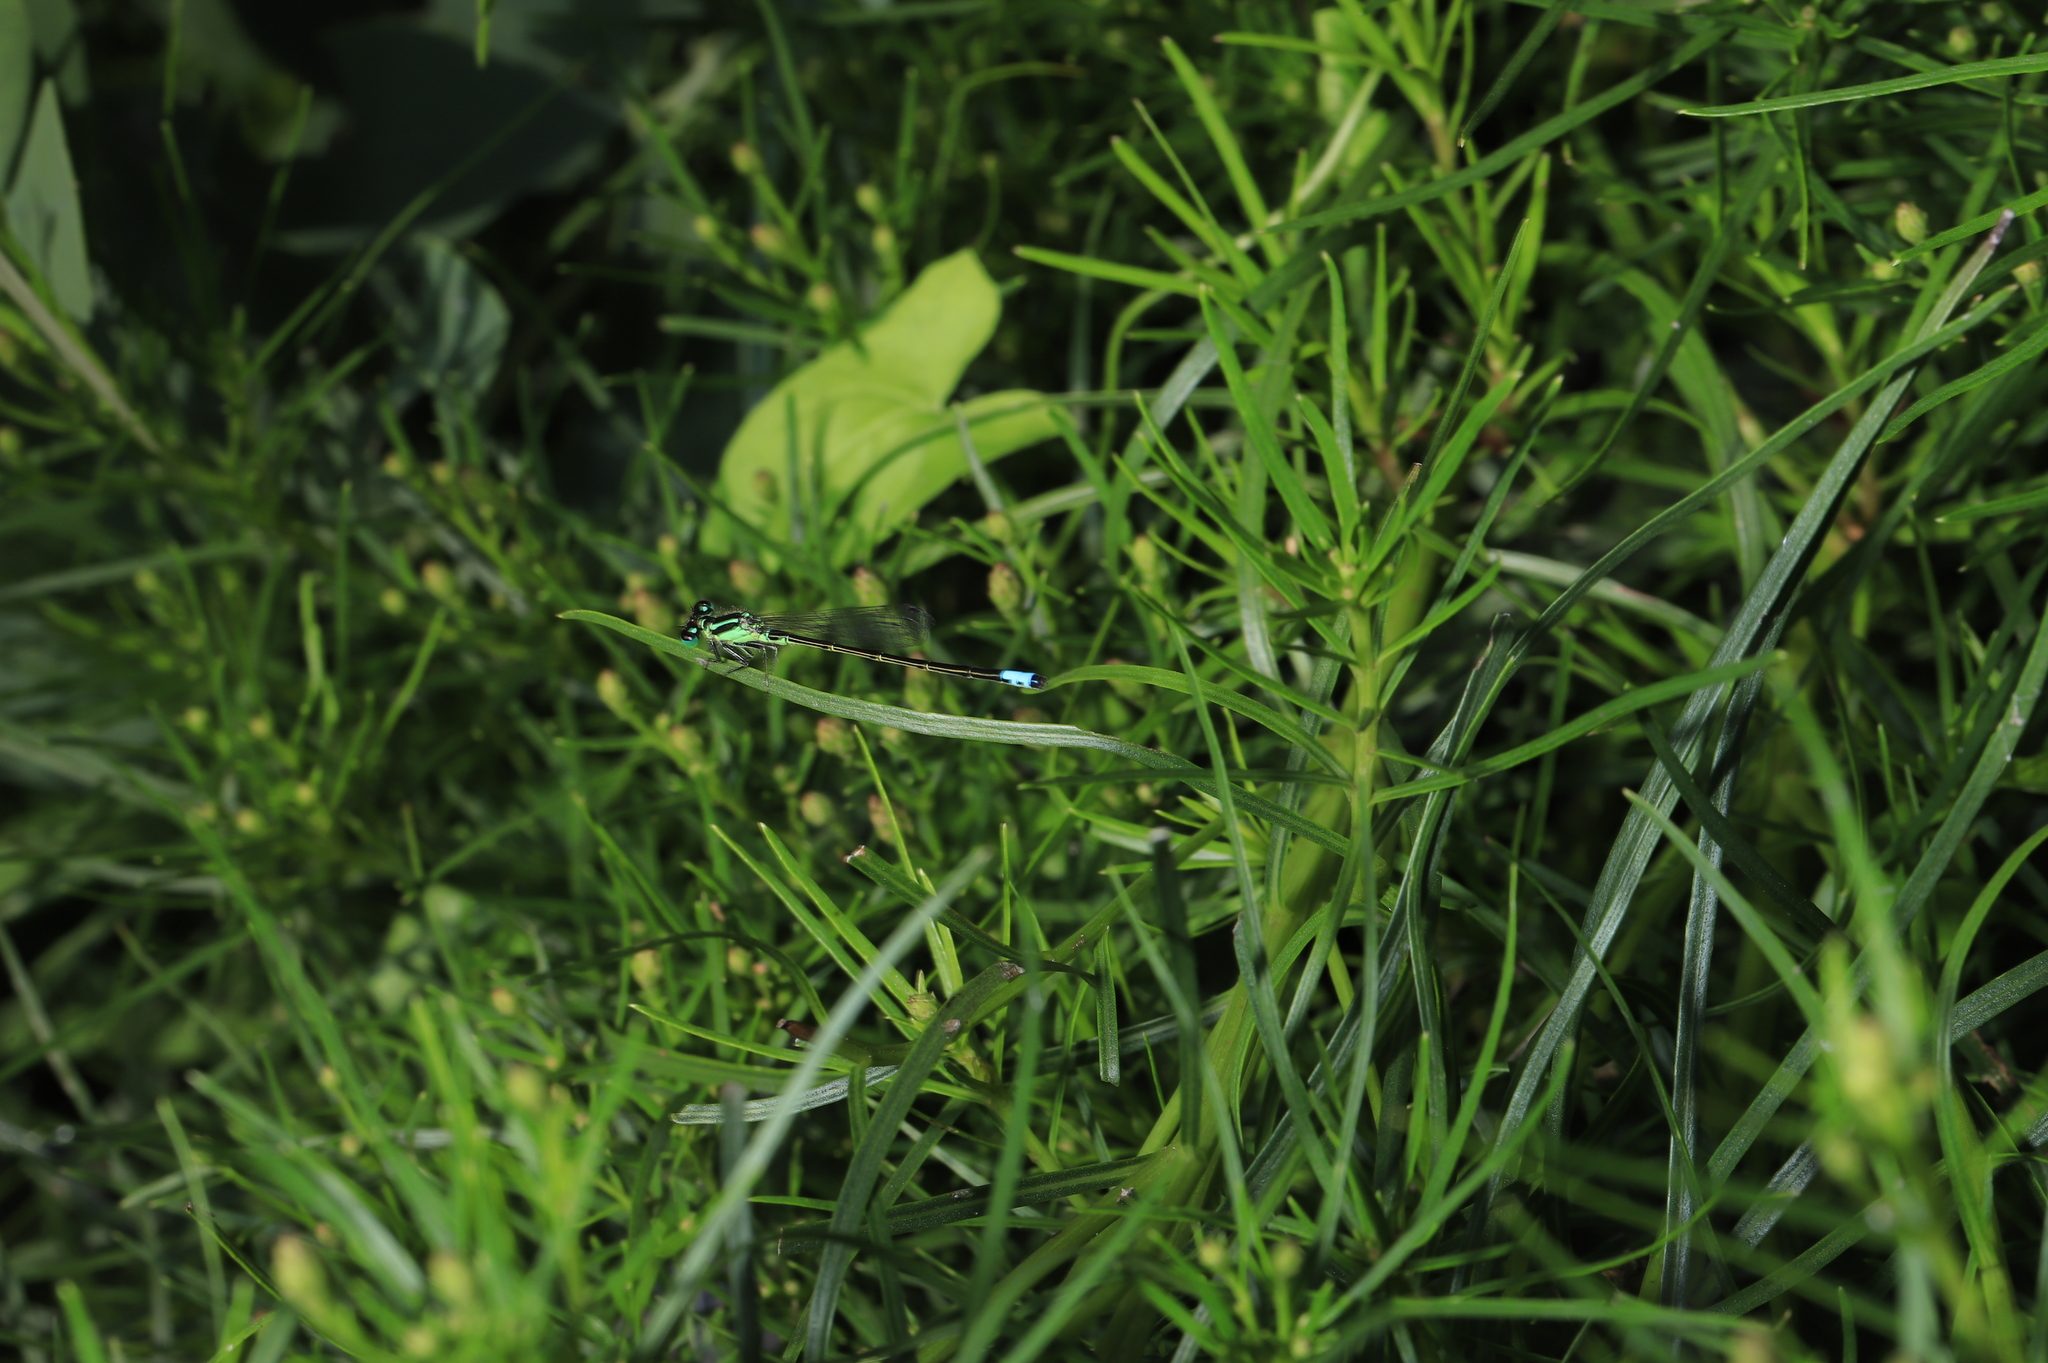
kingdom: Animalia
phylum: Arthropoda
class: Insecta
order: Odonata
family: Coenagrionidae
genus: Ischnura
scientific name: Ischnura verticalis
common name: Eastern forktail
